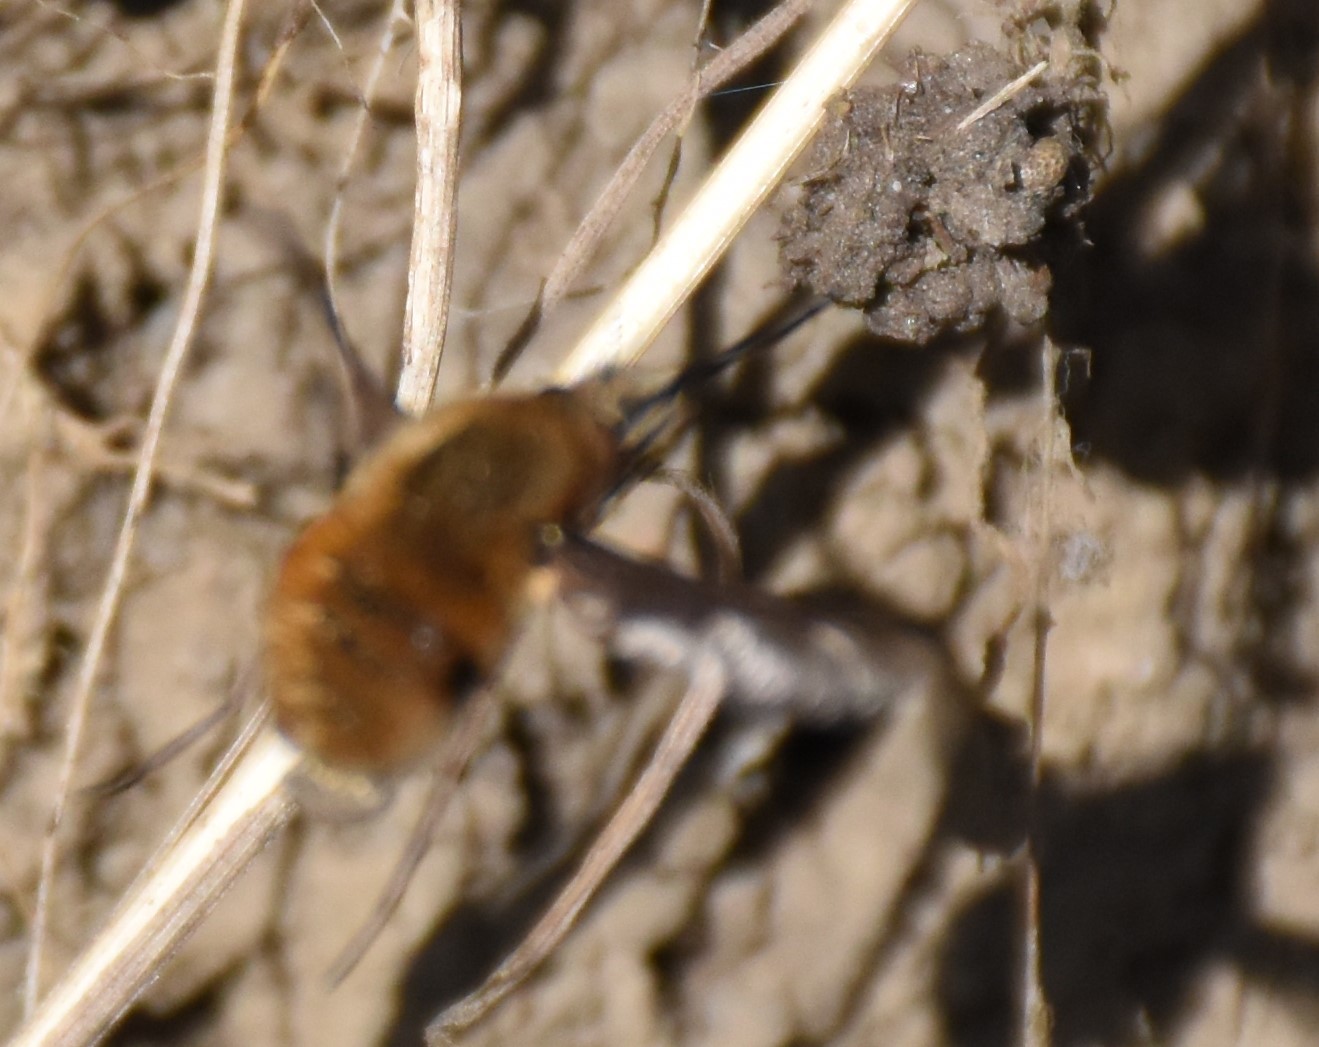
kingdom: Animalia
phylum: Arthropoda
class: Insecta
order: Diptera
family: Bombyliidae
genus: Bombylius
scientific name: Bombylius major
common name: Bee fly
